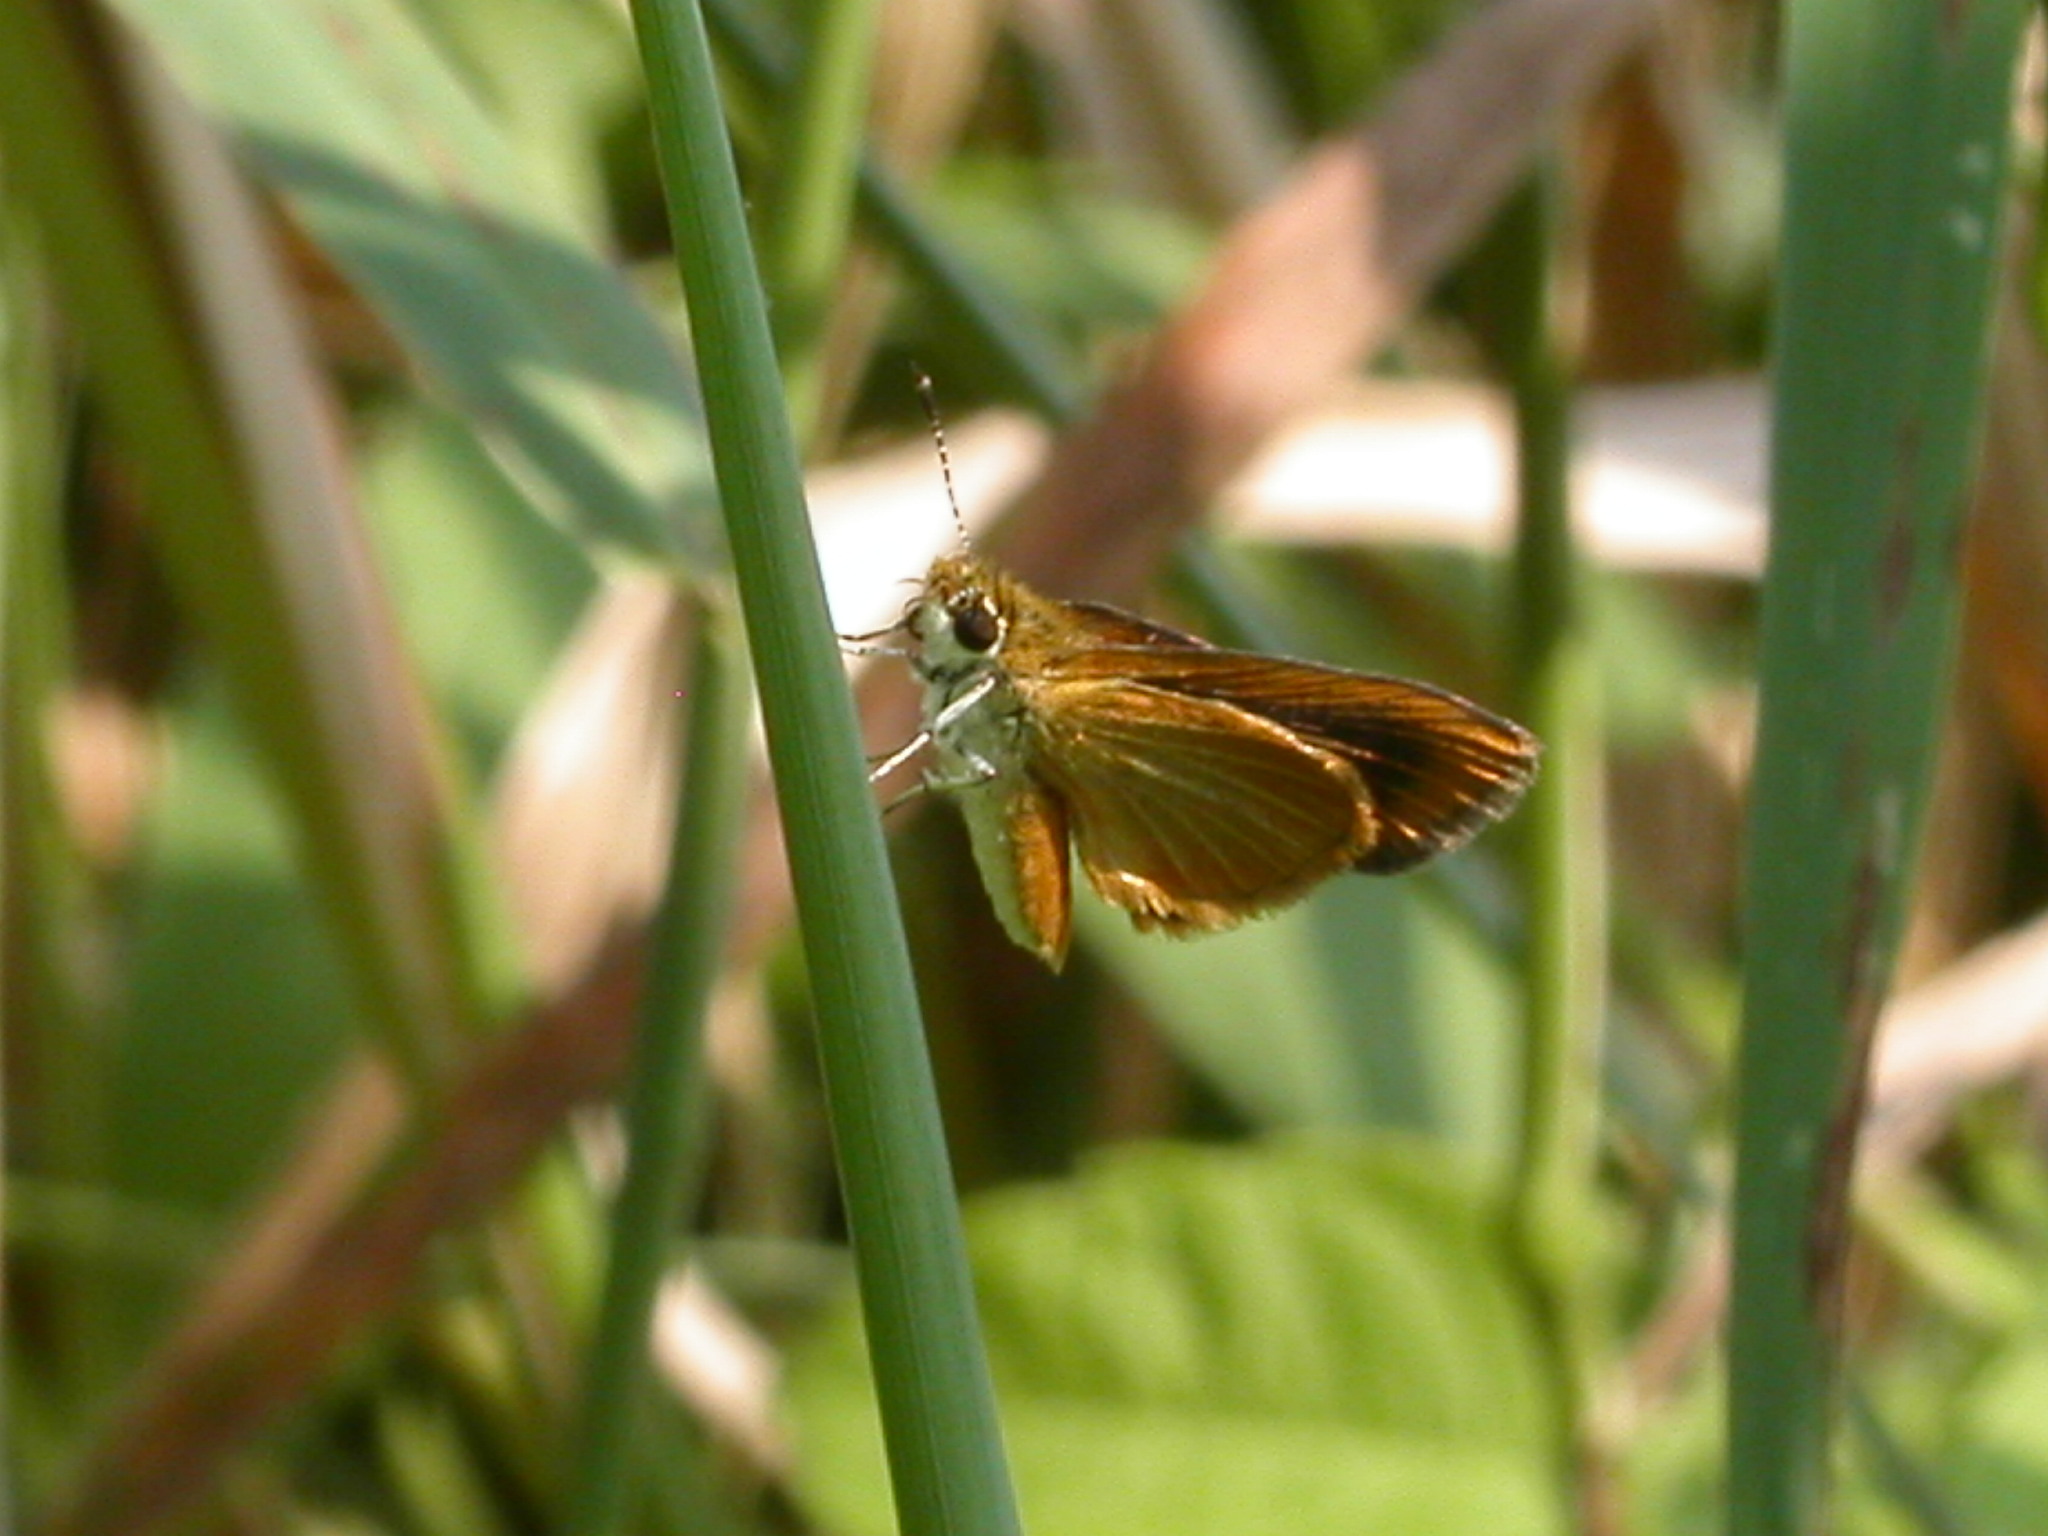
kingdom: Animalia
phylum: Arthropoda
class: Insecta
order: Lepidoptera
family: Hesperiidae
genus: Ancyloxypha
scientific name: Ancyloxypha numitor
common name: Least skipper
